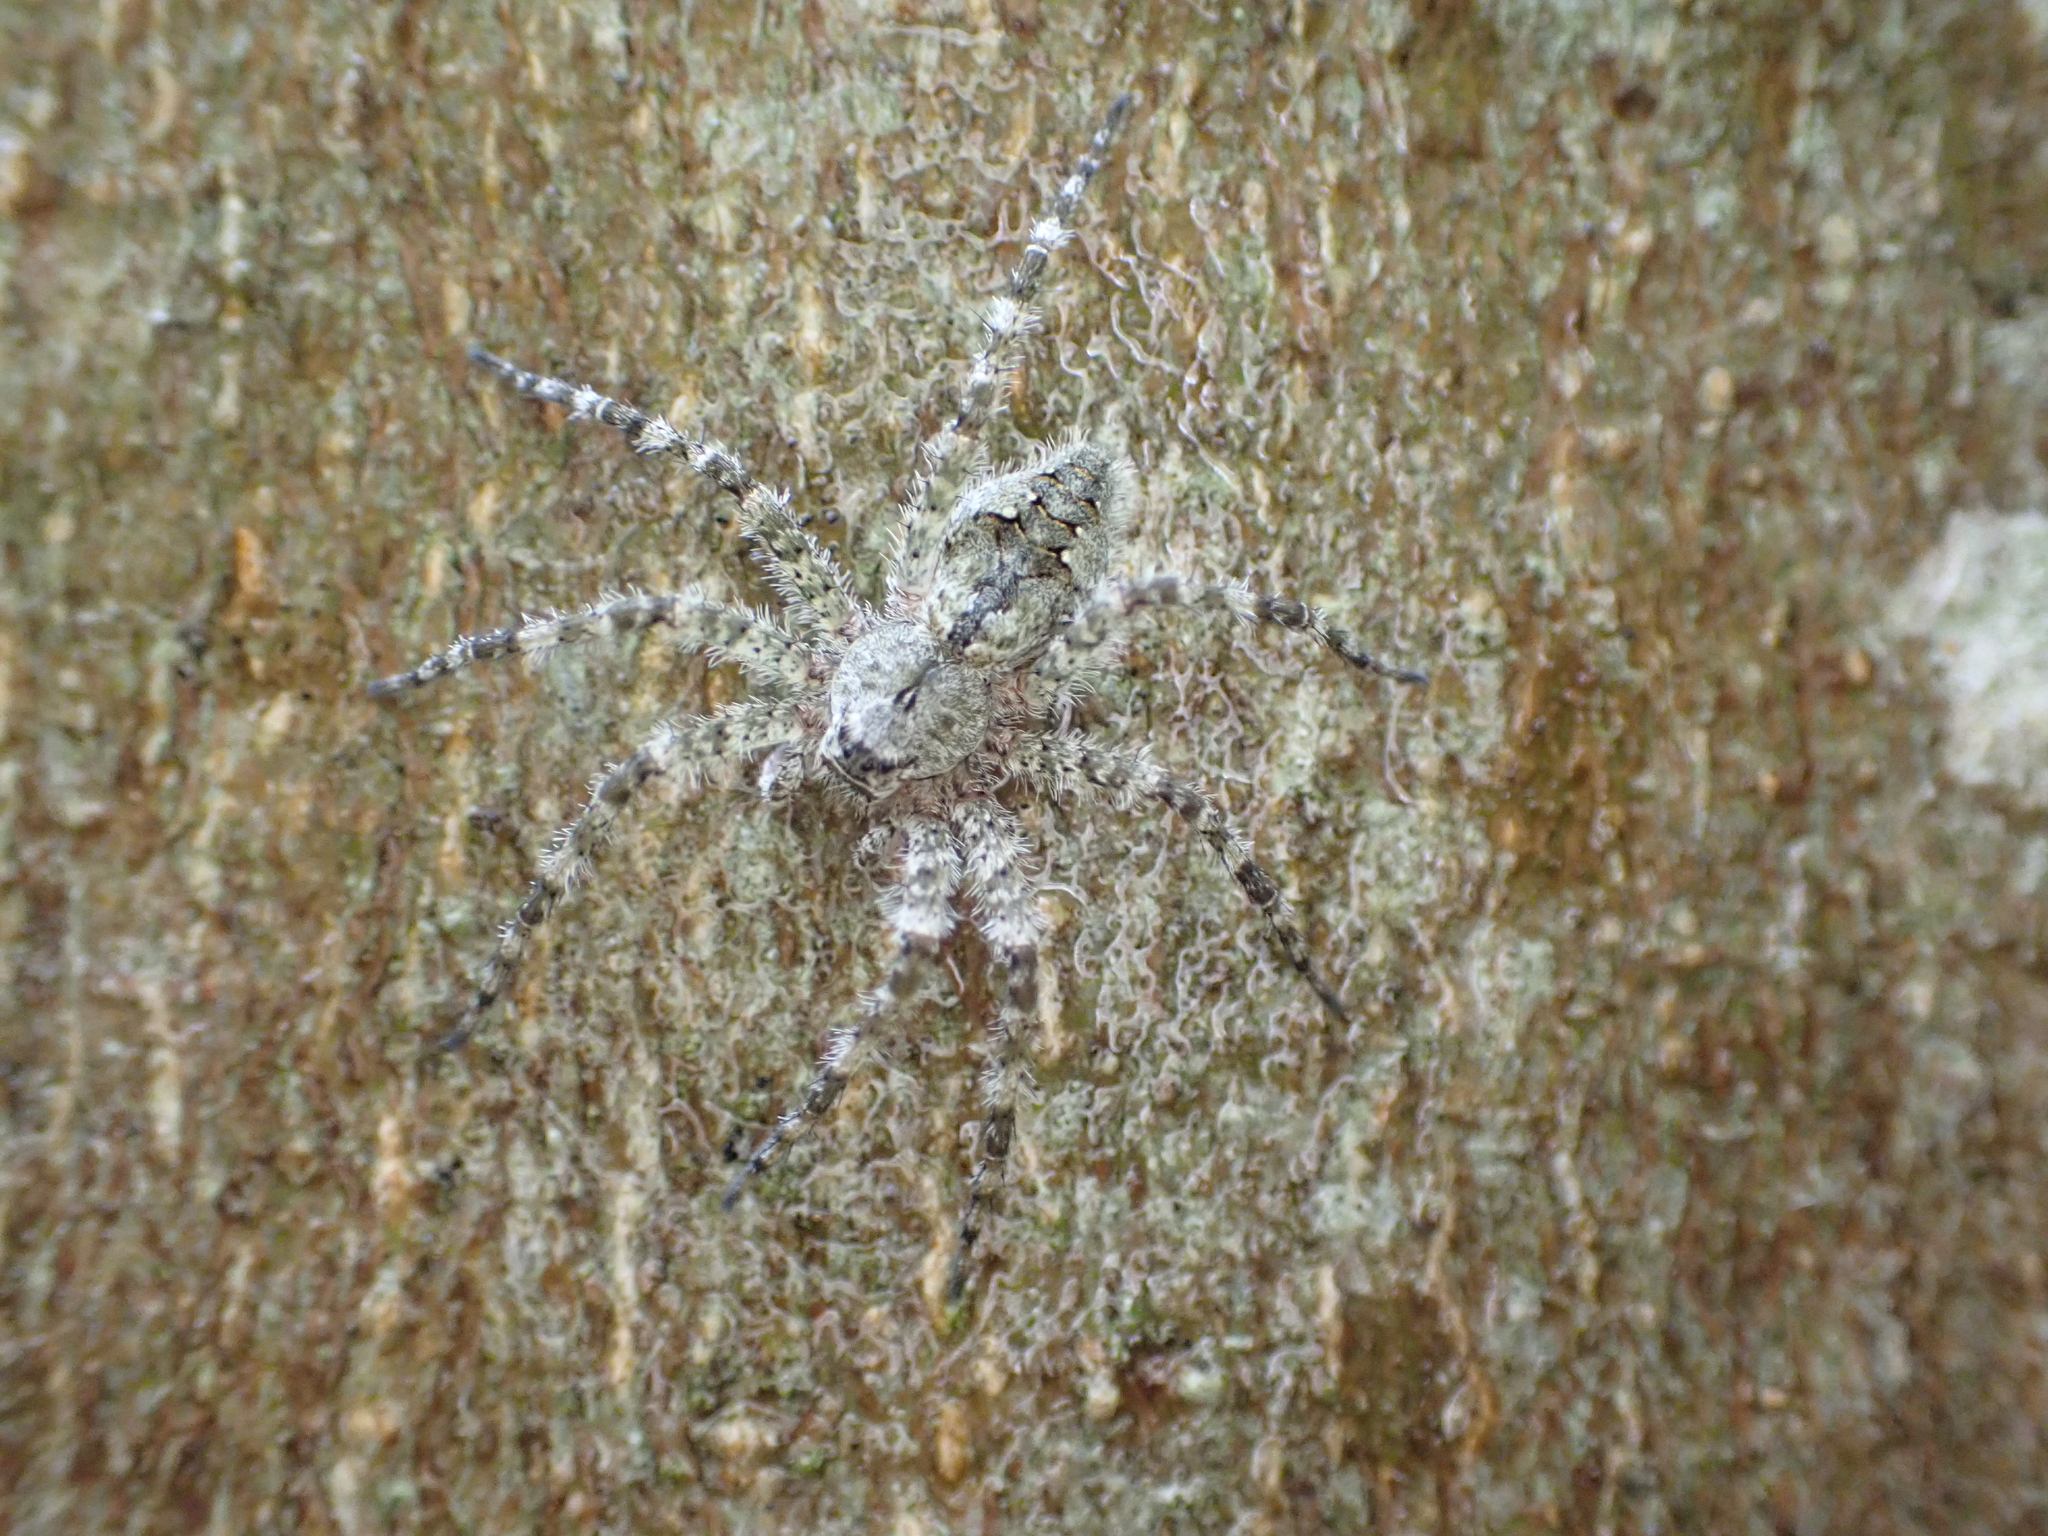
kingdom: Animalia
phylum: Arthropoda
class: Arachnida
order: Araneae
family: Pisauridae
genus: Dolomedes
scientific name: Dolomedes albineus
